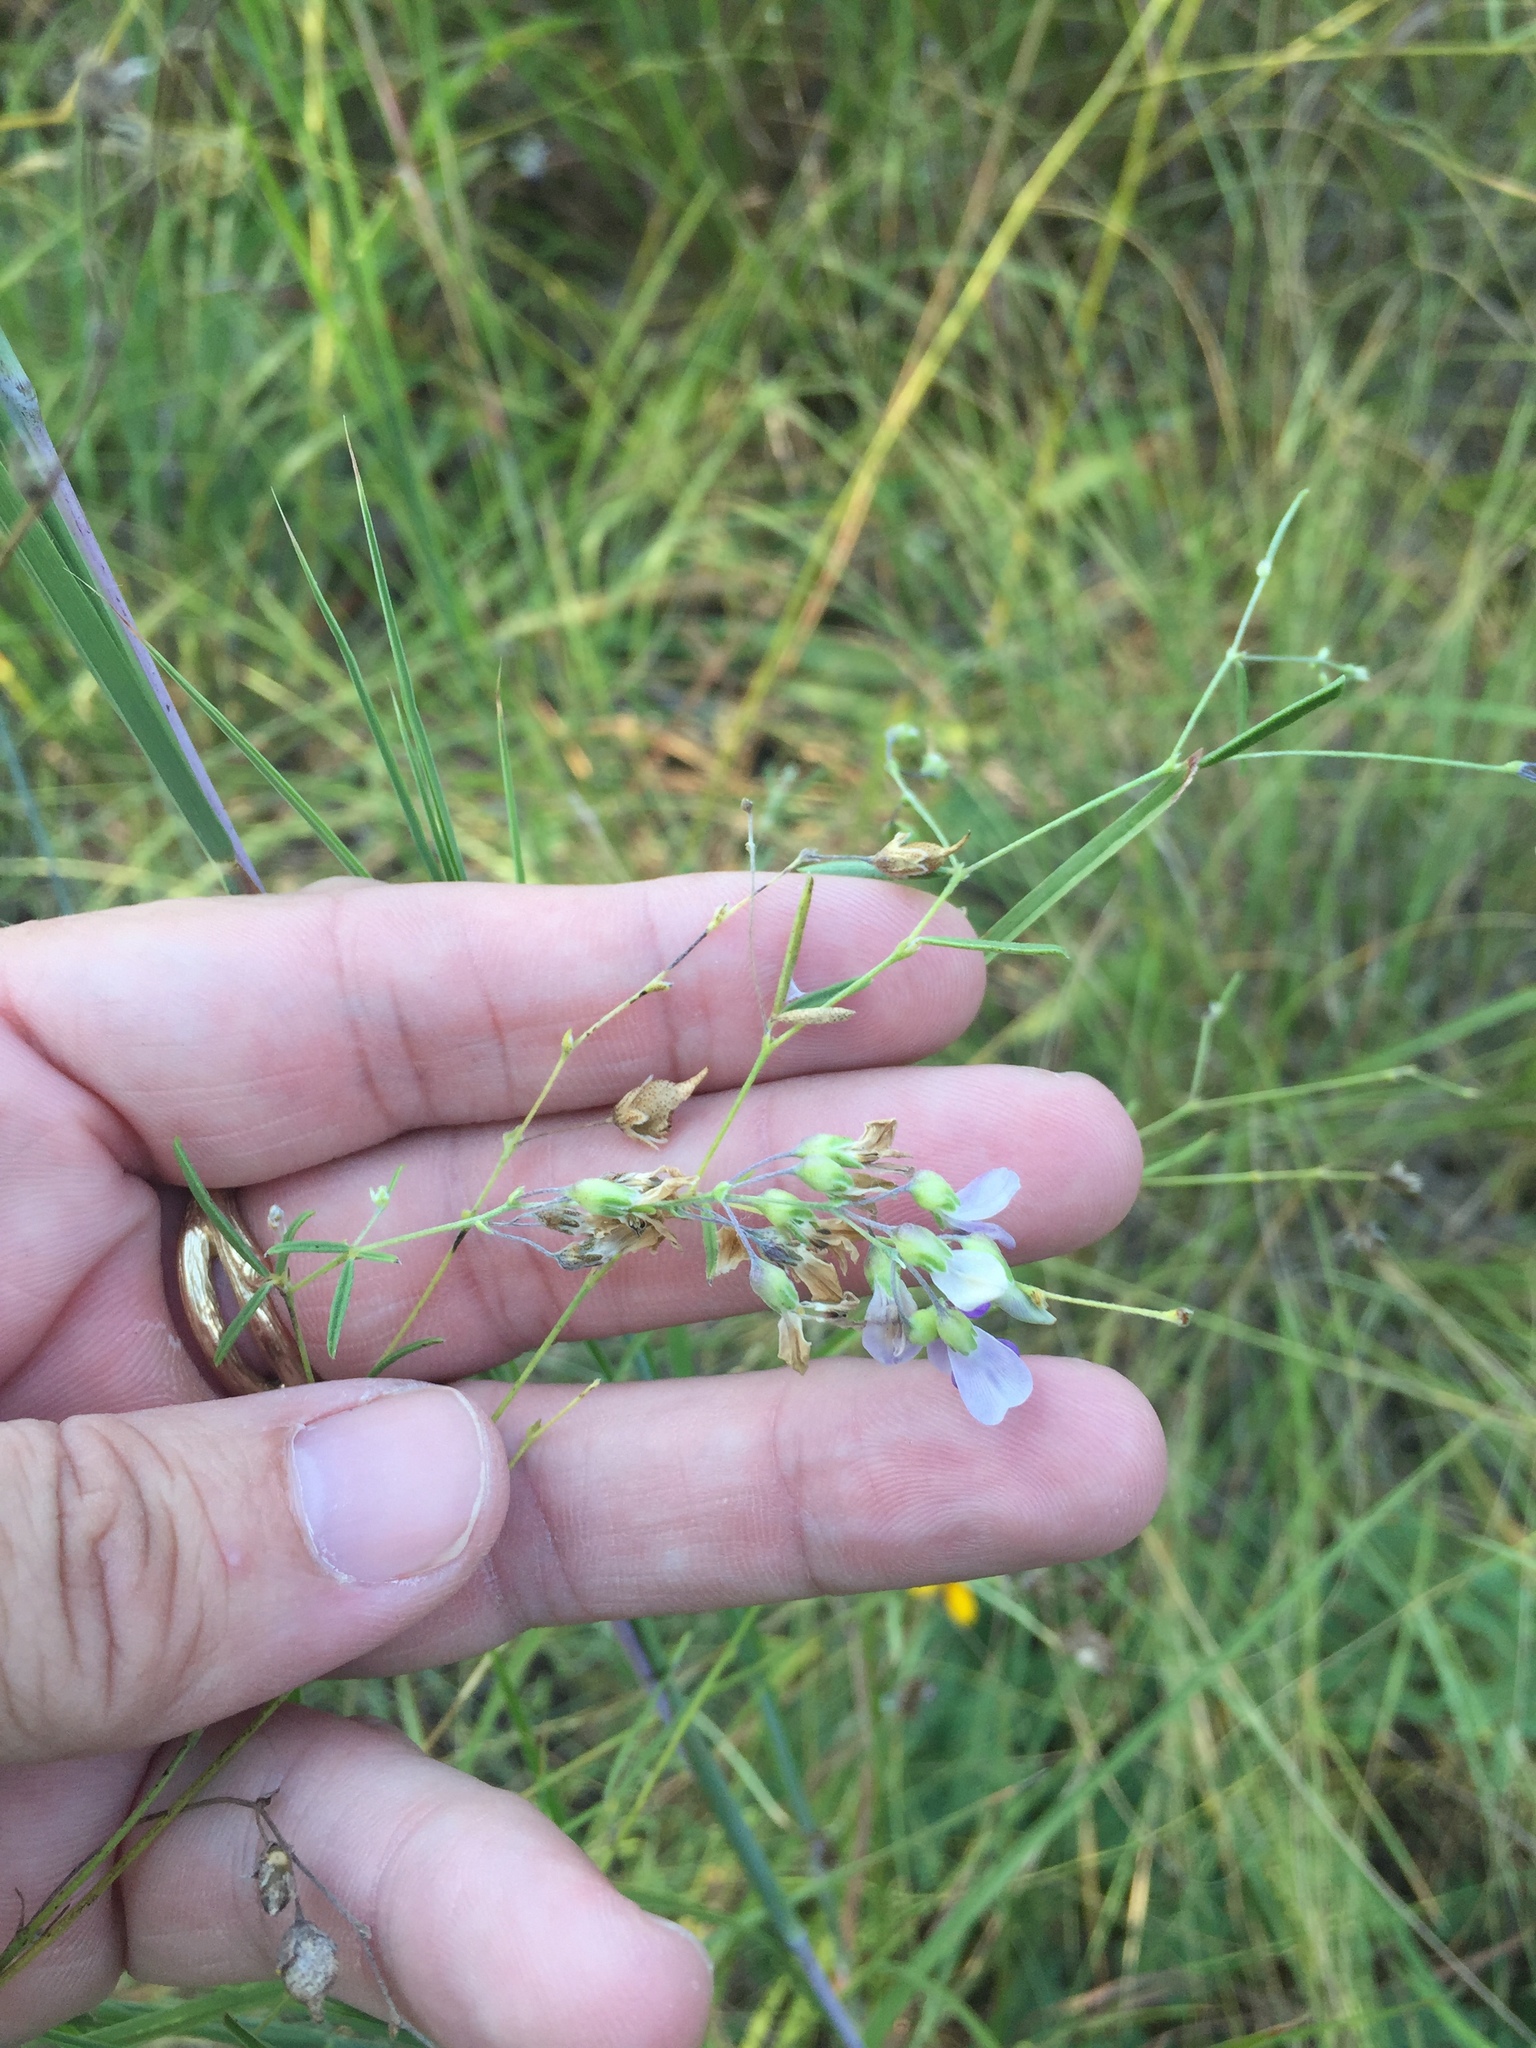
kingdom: Plantae
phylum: Tracheophyta
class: Magnoliopsida
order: Fabales
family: Fabaceae
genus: Pediomelum
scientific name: Pediomelum linearifolium
